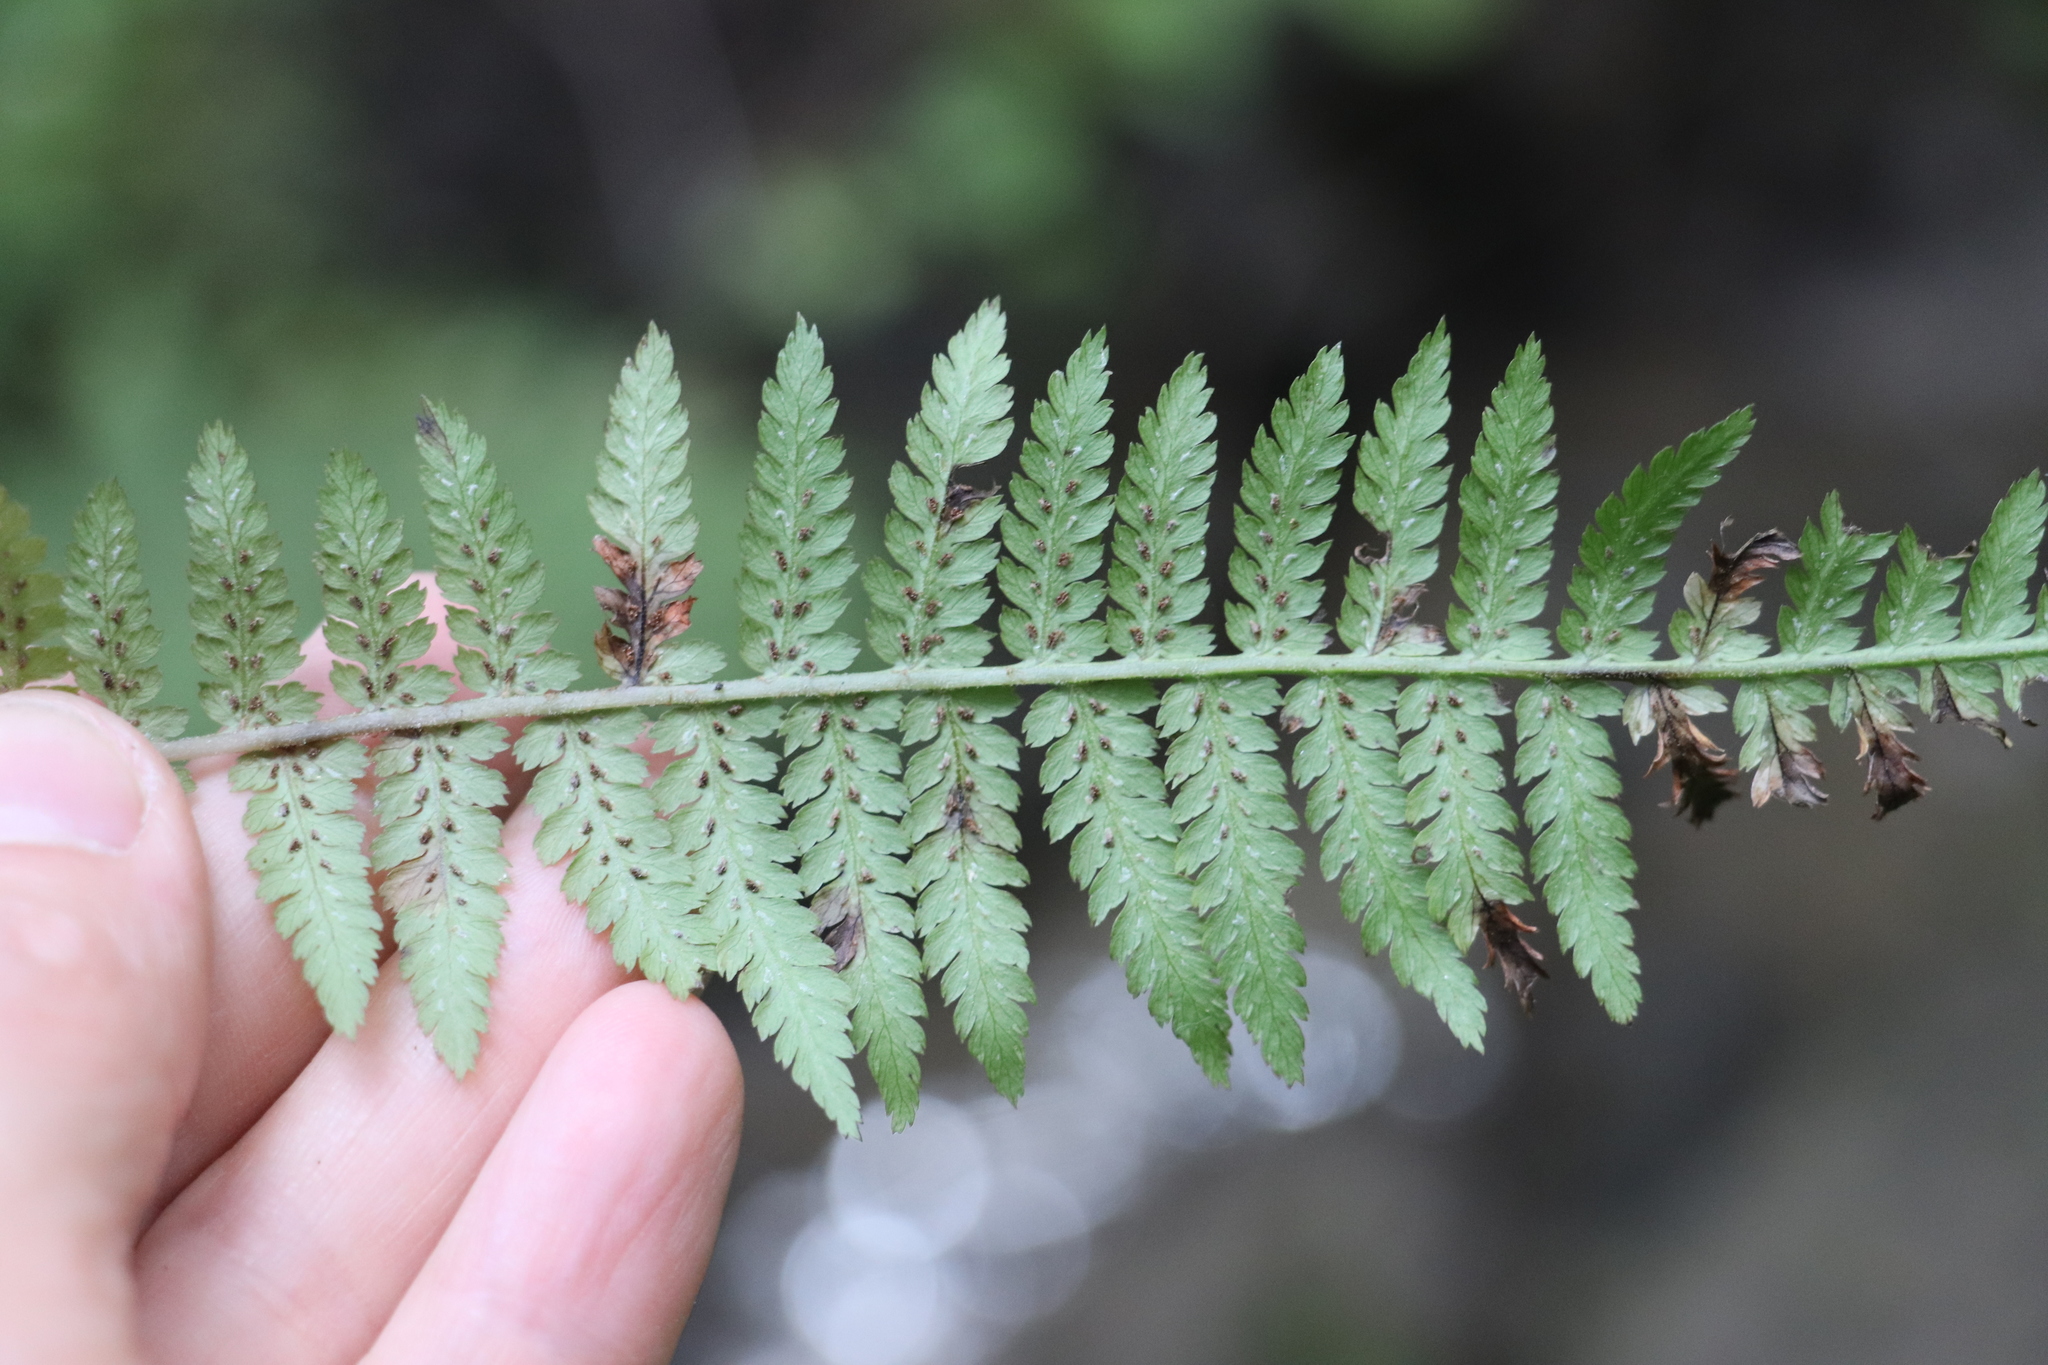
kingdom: Plantae
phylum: Tracheophyta
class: Polypodiopsida
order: Polypodiales
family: Athyriaceae
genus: Athyrium
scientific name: Athyrium filix-femina
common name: Lady fern
